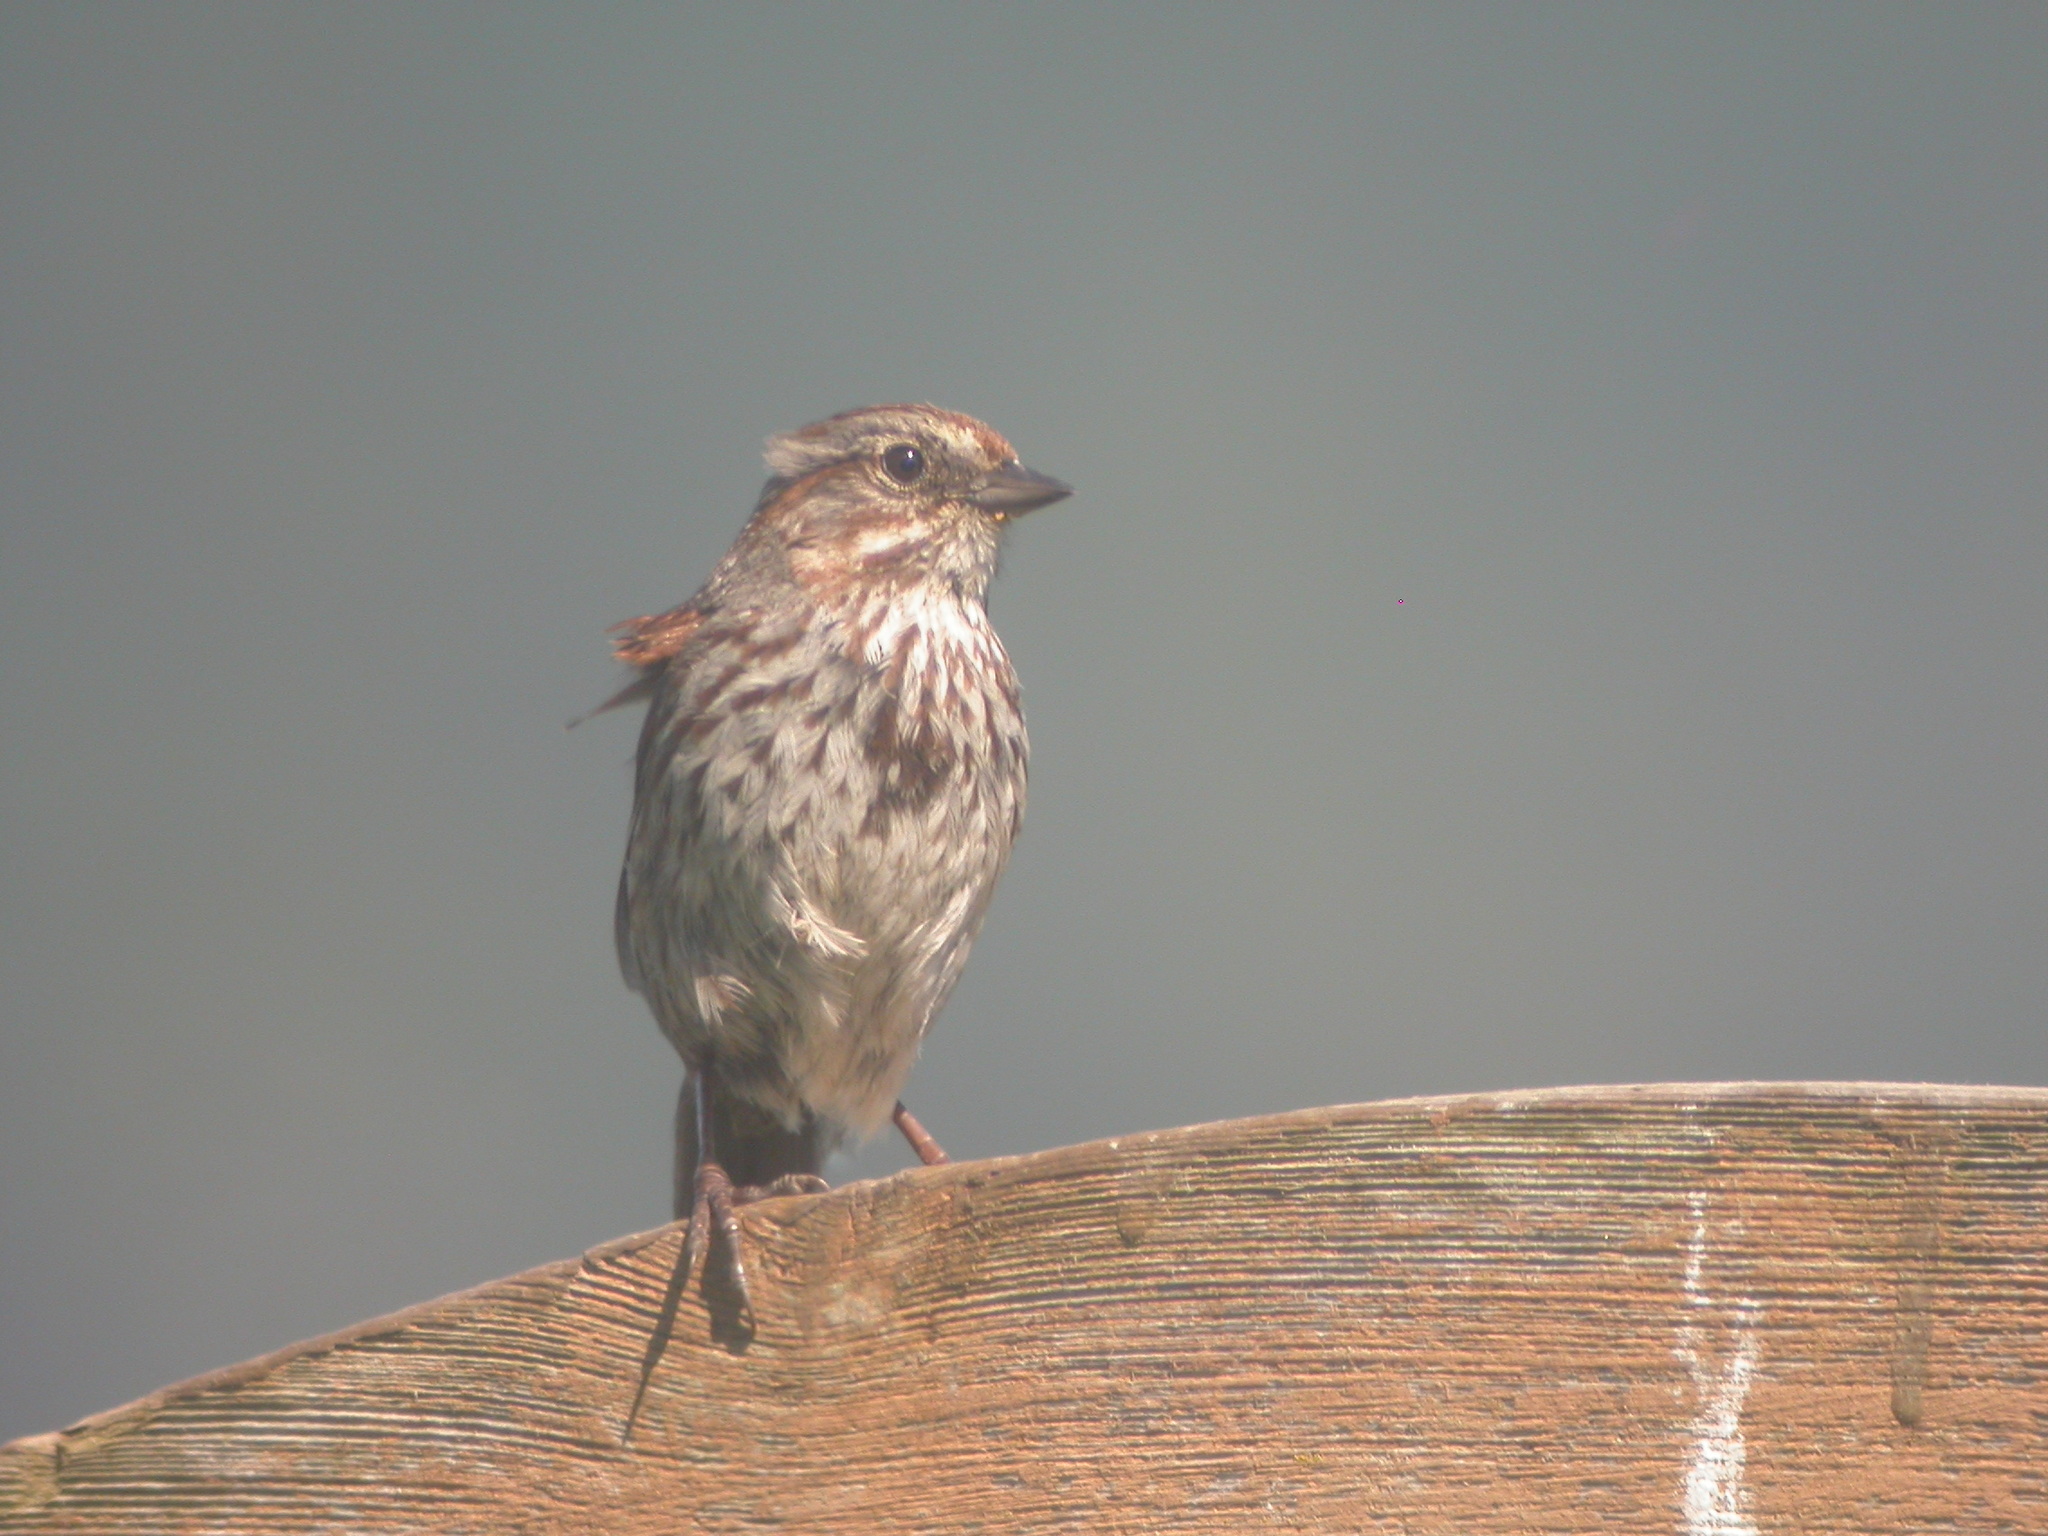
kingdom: Animalia
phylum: Chordata
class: Aves
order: Passeriformes
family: Passerellidae
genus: Melospiza
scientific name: Melospiza melodia
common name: Song sparrow
